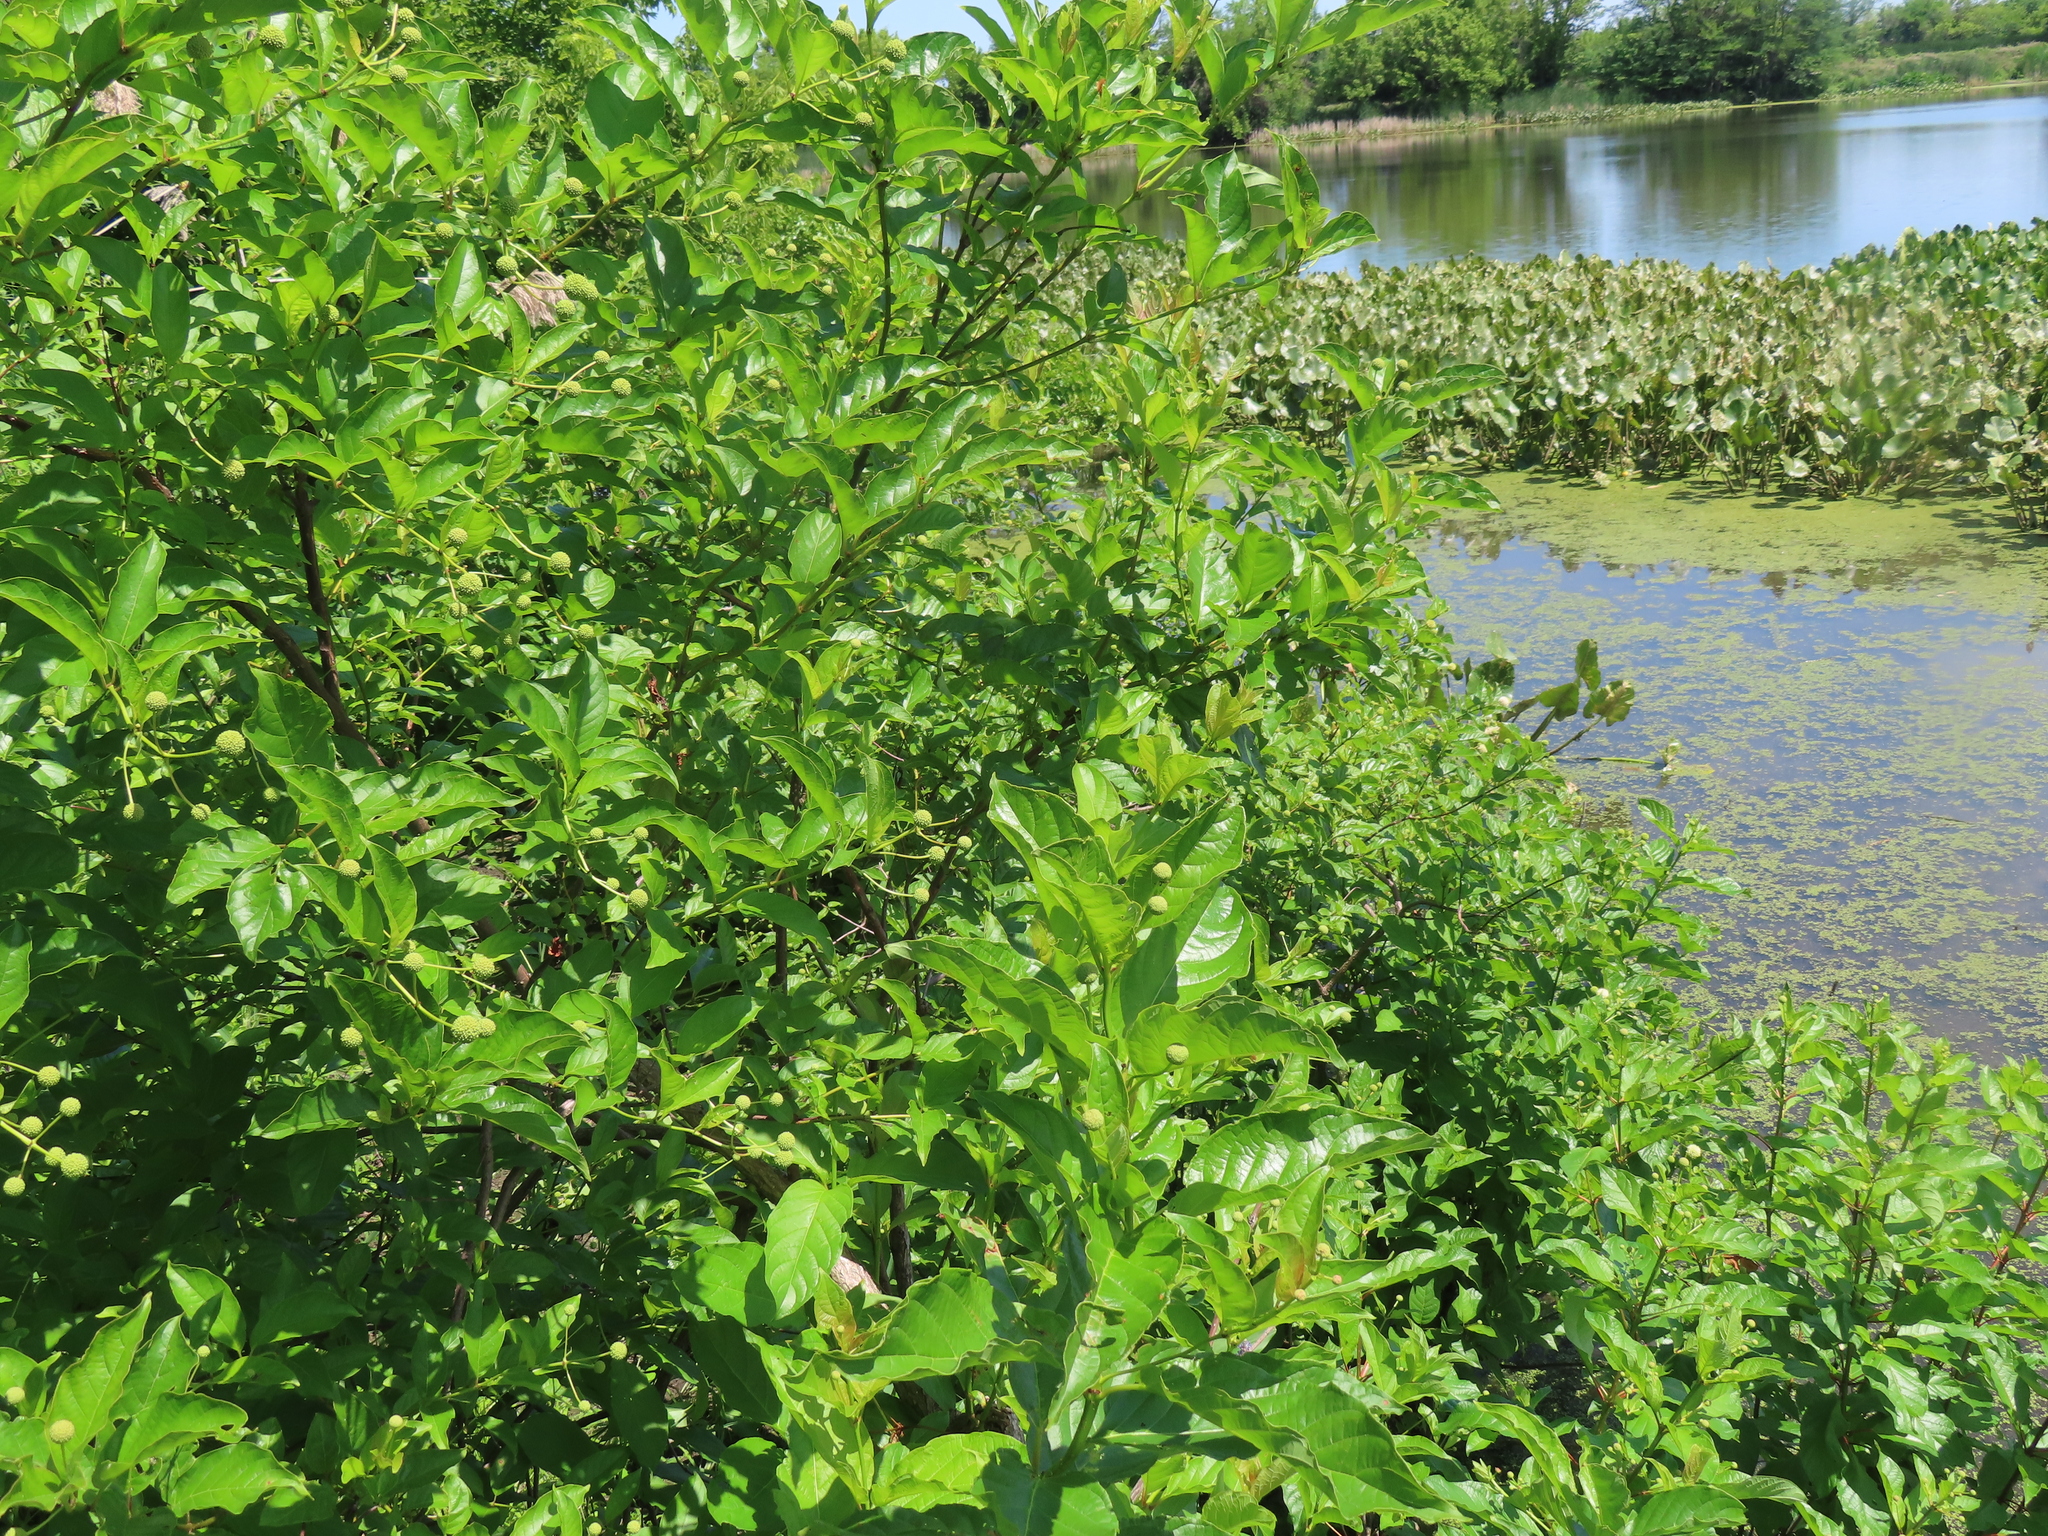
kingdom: Plantae
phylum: Tracheophyta
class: Magnoliopsida
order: Gentianales
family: Rubiaceae
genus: Cephalanthus
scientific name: Cephalanthus occidentalis
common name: Button-willow
